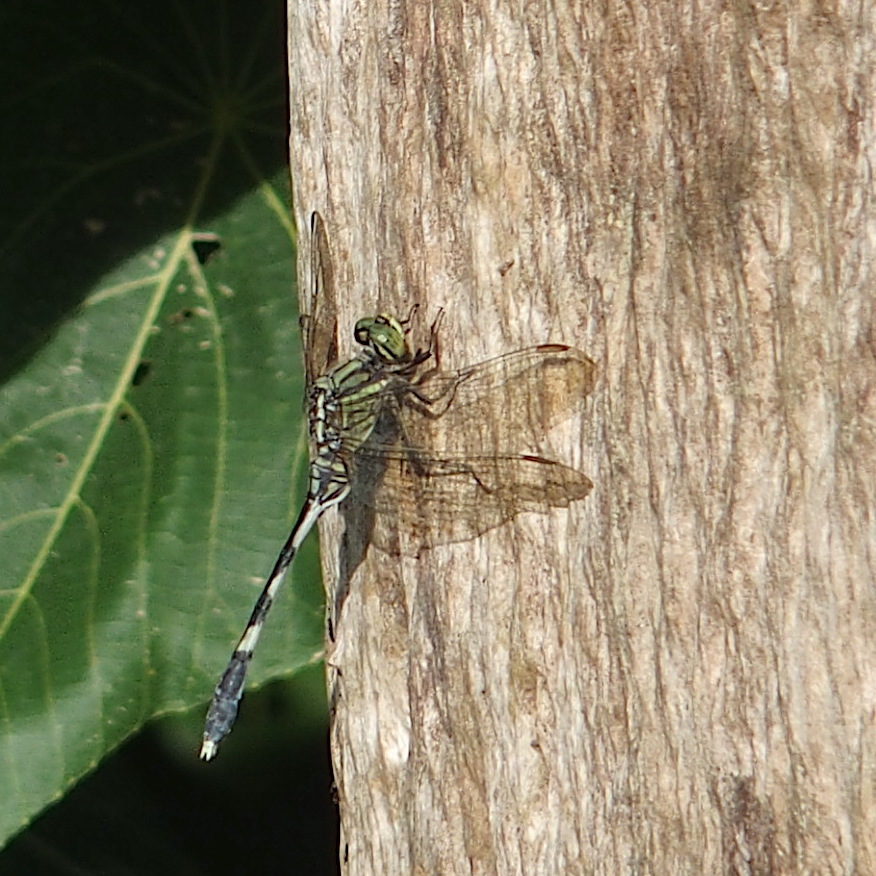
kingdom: Animalia
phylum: Arthropoda
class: Insecta
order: Odonata
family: Libellulidae
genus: Orthetrum
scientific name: Orthetrum sabina
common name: Slender skimmer
